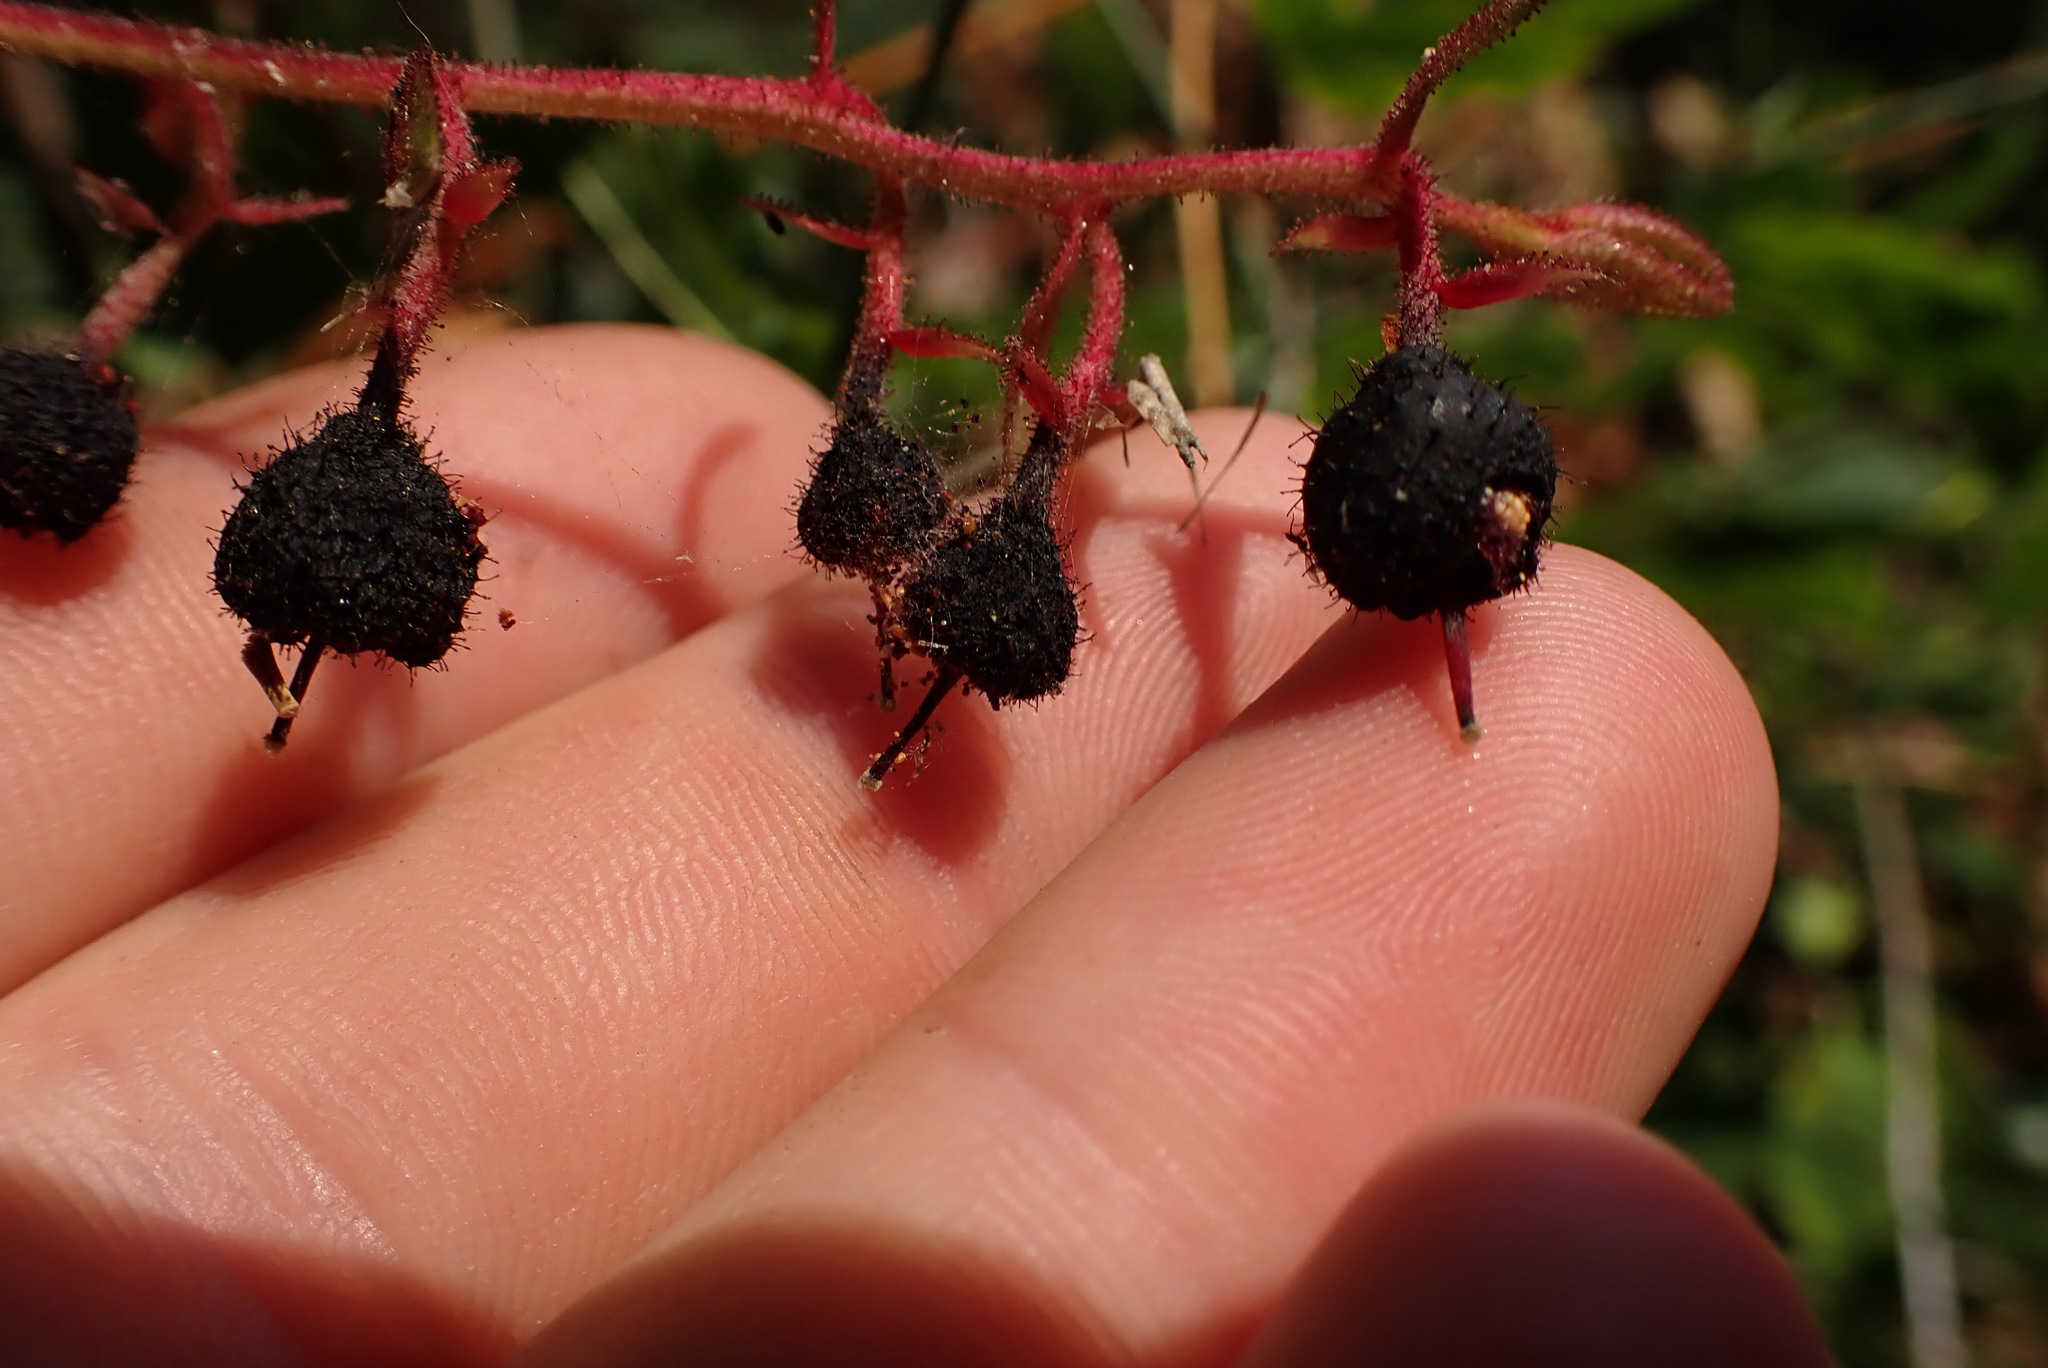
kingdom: Plantae
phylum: Tracheophyta
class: Magnoliopsida
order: Ericales
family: Ericaceae
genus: Gaultheria
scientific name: Gaultheria shallon
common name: Shallon
